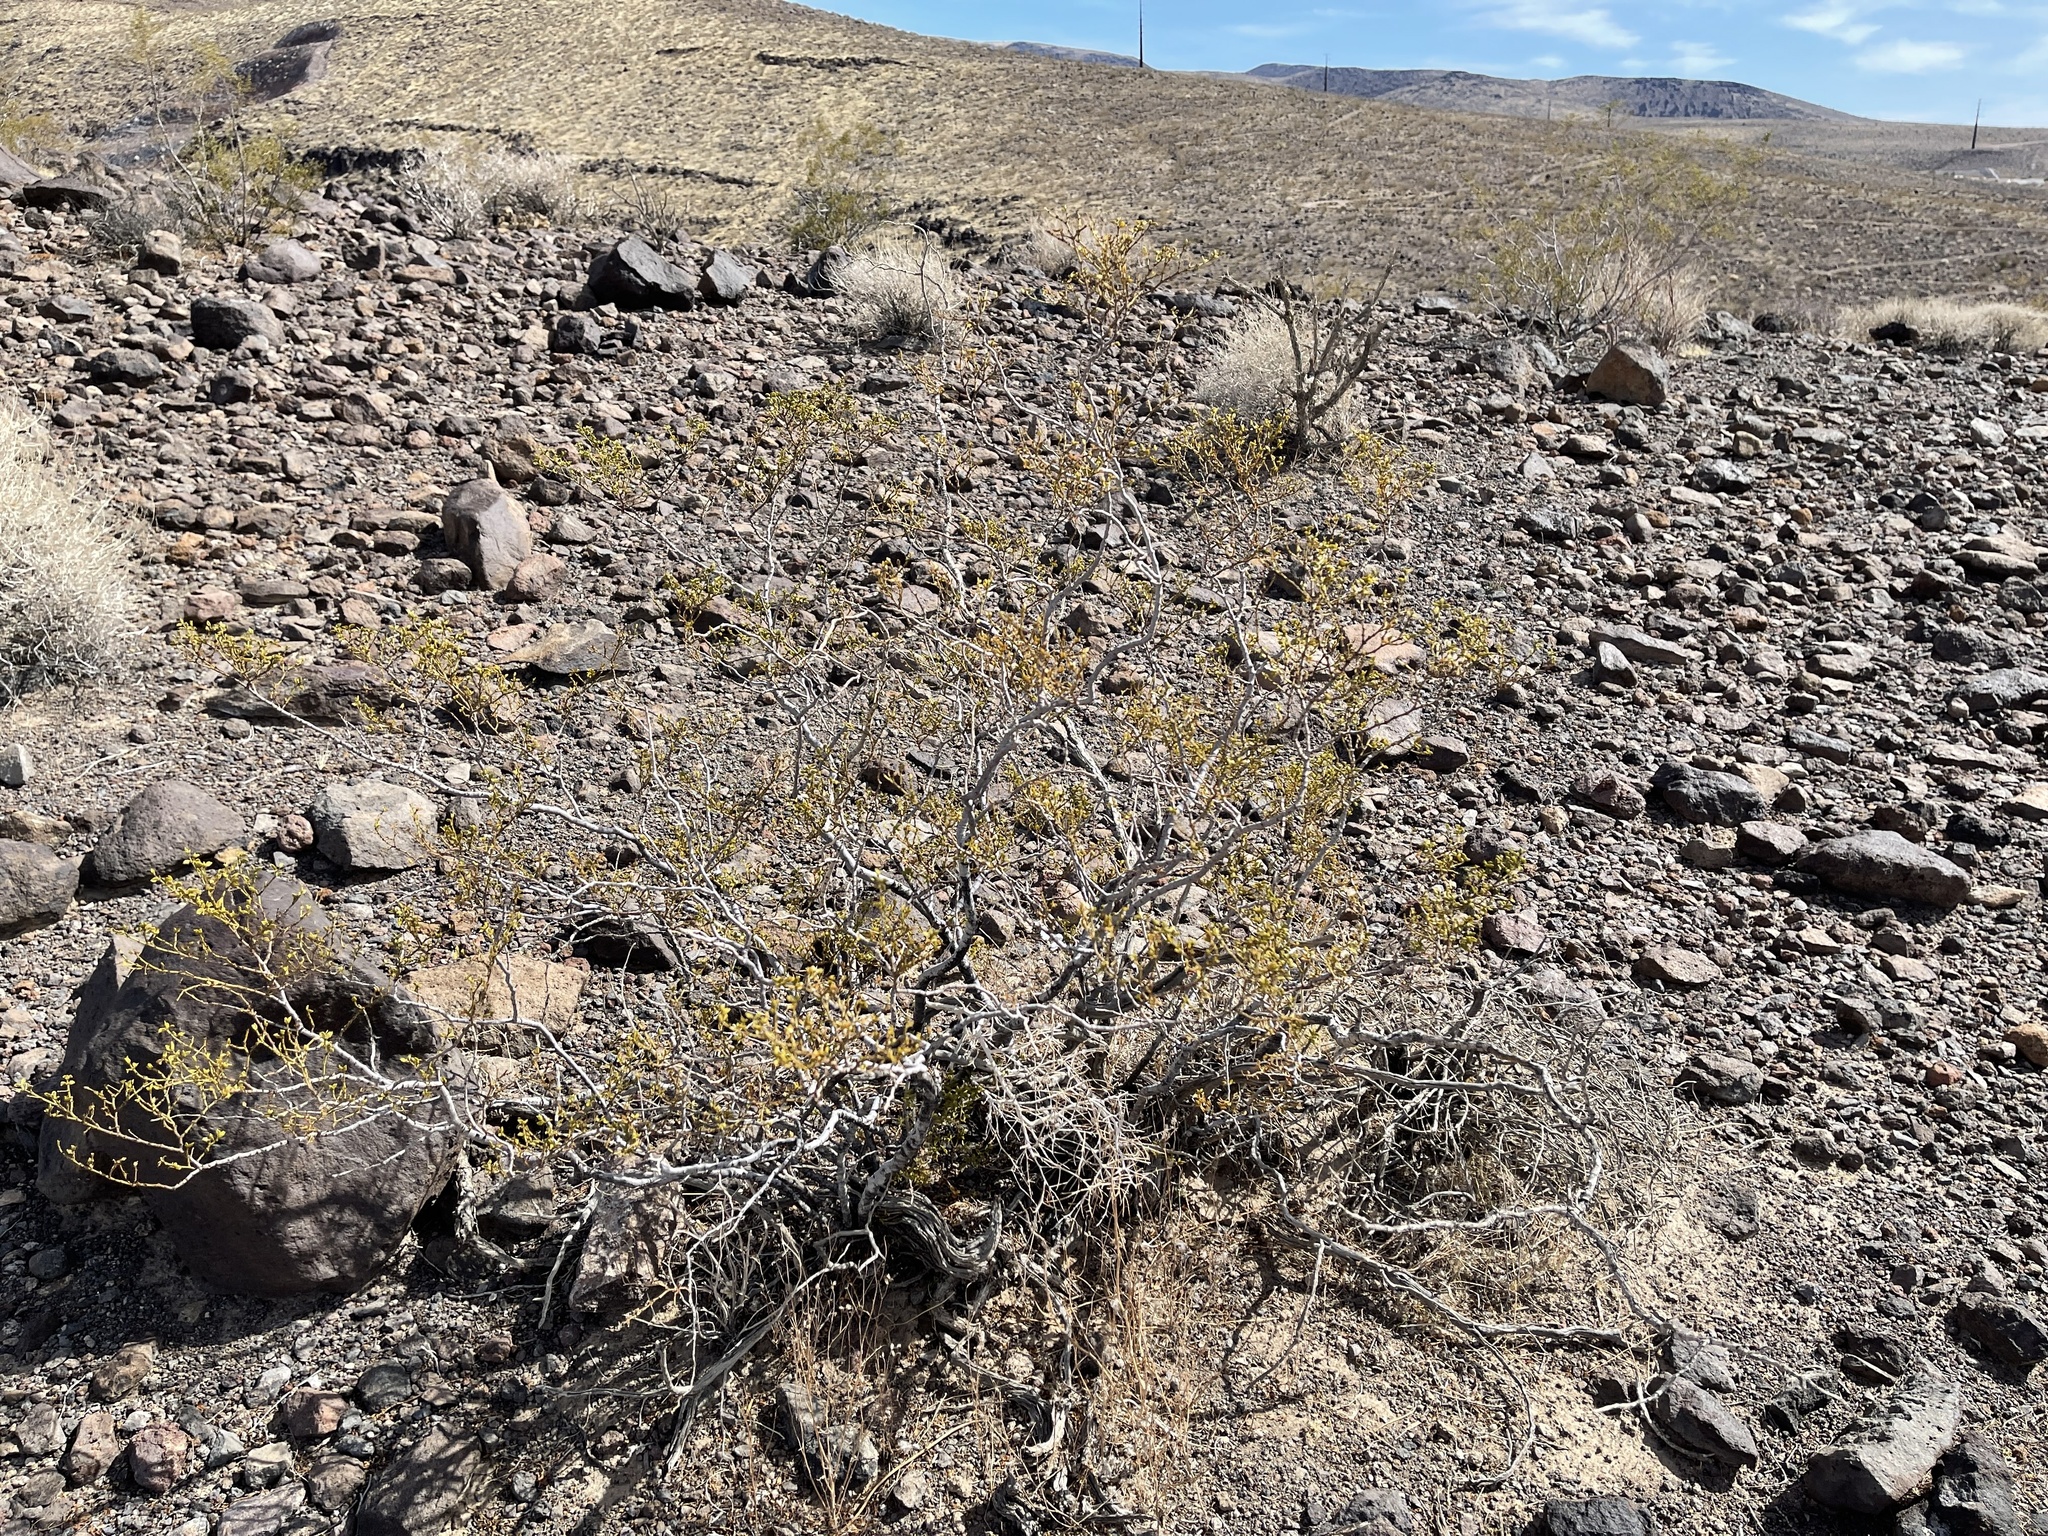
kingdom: Plantae
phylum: Tracheophyta
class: Magnoliopsida
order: Zygophyllales
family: Zygophyllaceae
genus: Larrea
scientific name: Larrea tridentata
